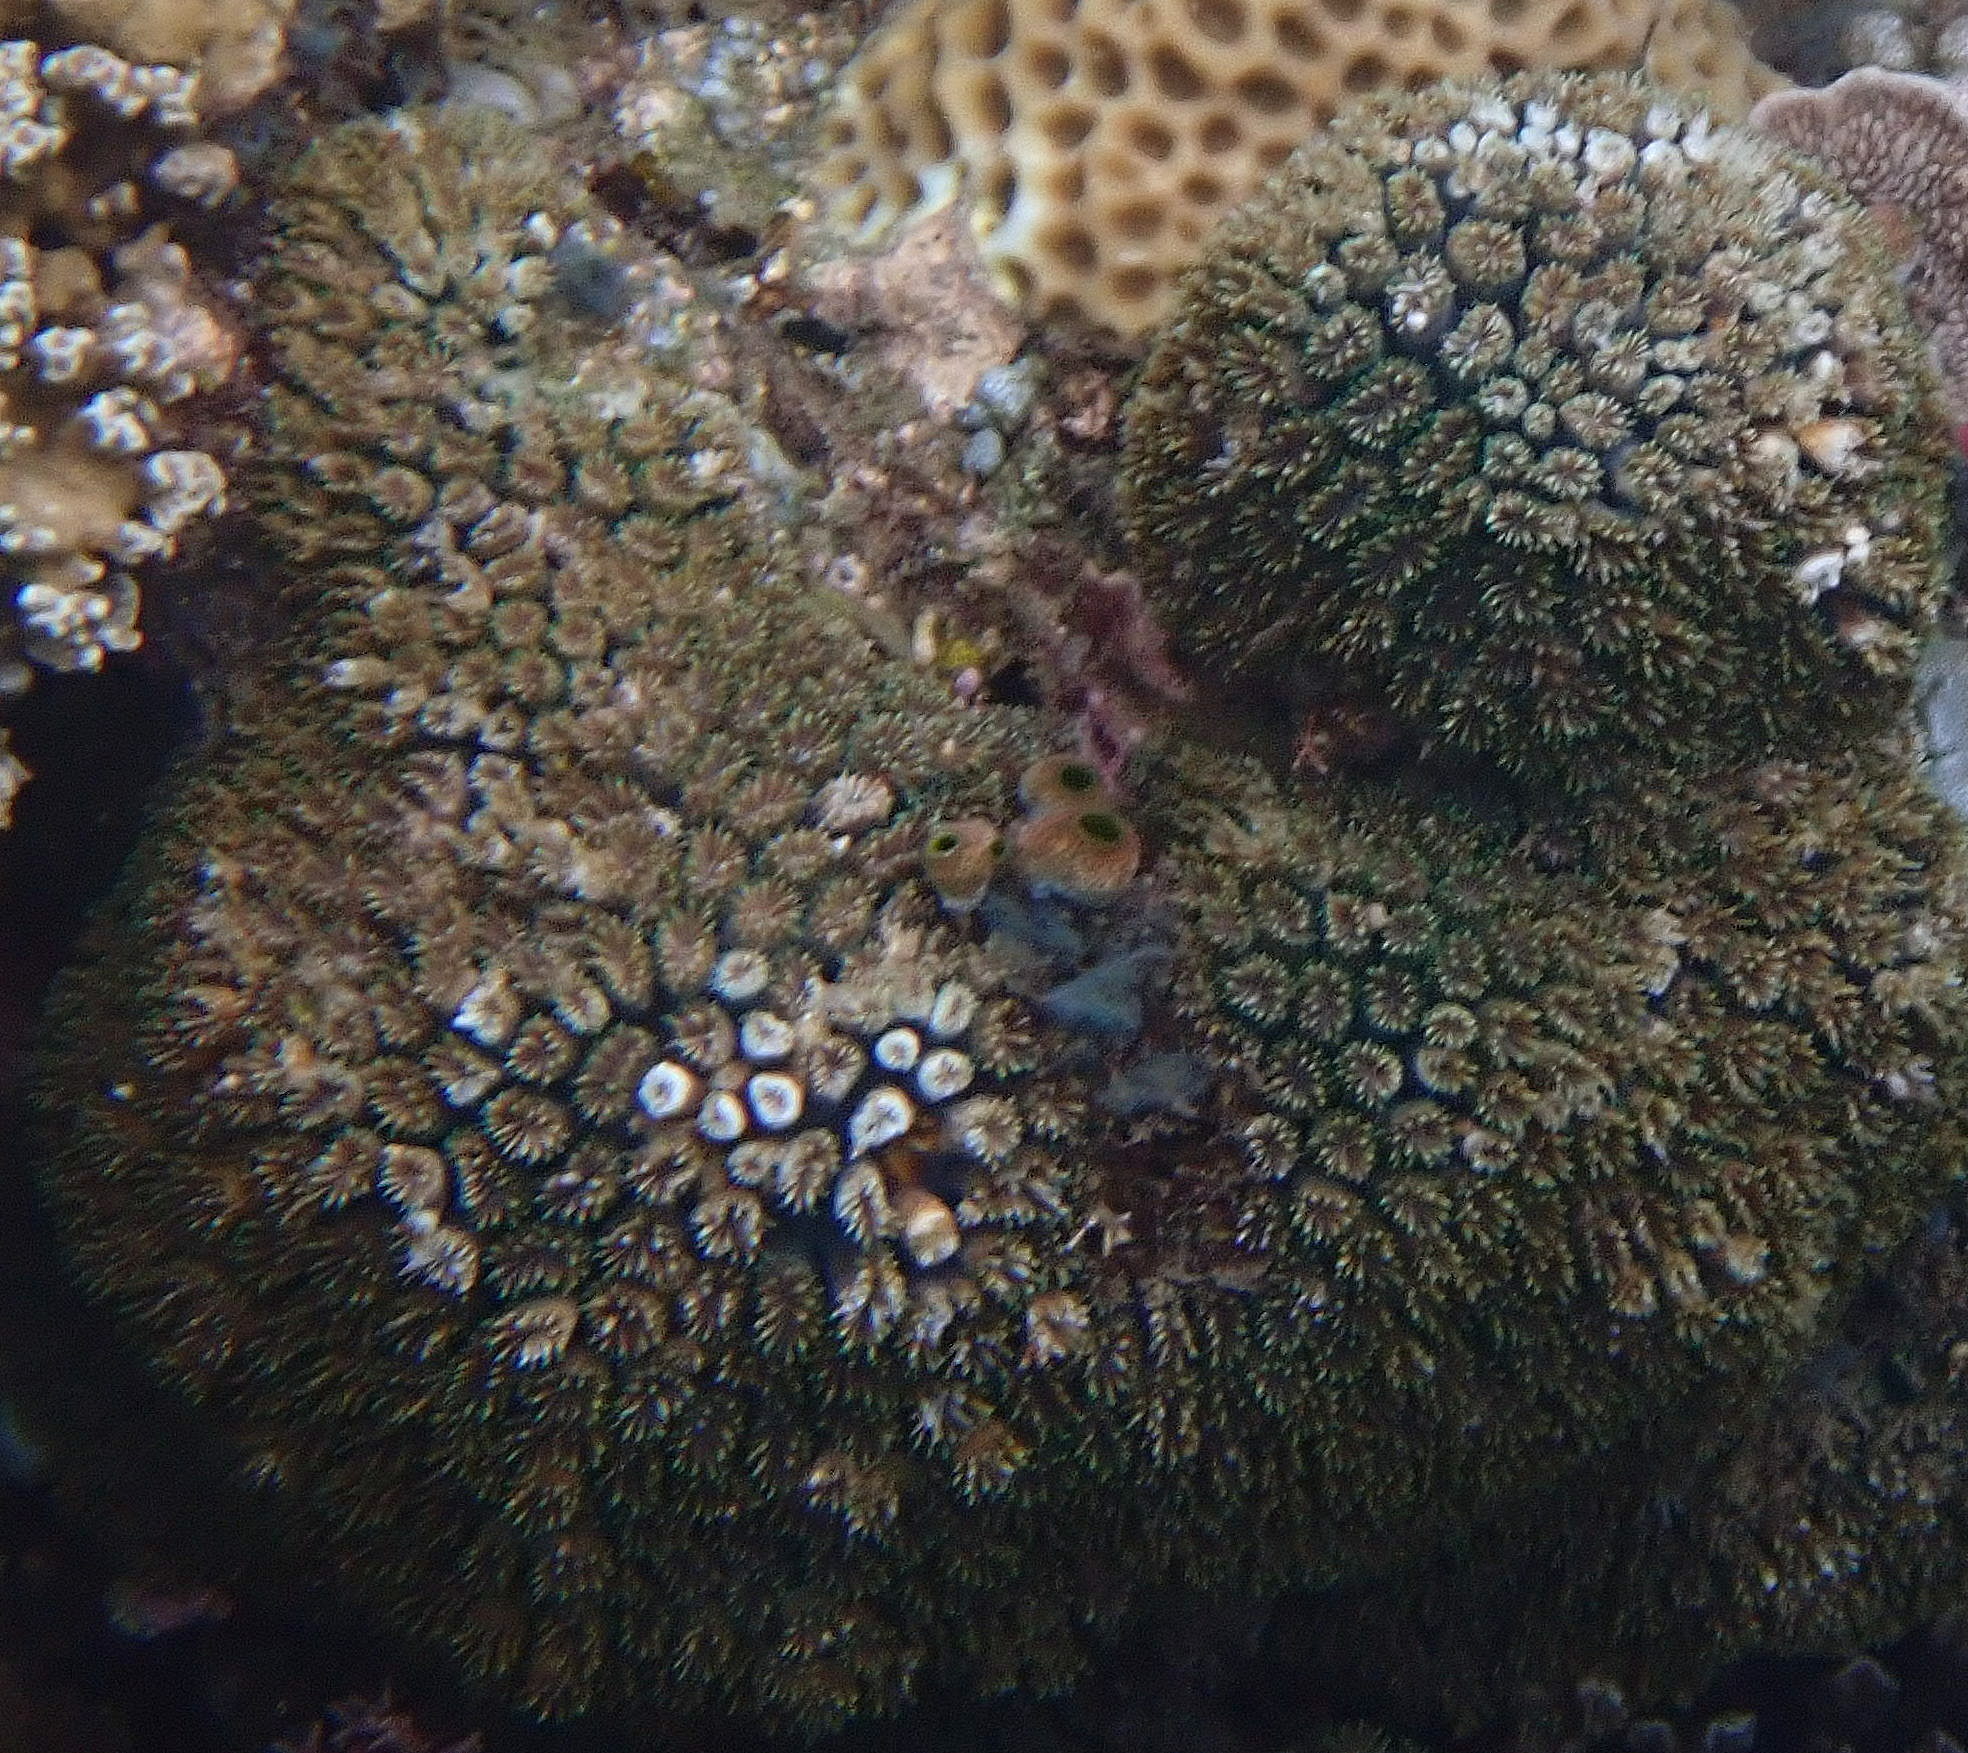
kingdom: Animalia
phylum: Cnidaria
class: Anthozoa
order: Scleractinia
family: Euphylliidae
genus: Galaxea
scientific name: Galaxea fascicularis
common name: Octopus coral
